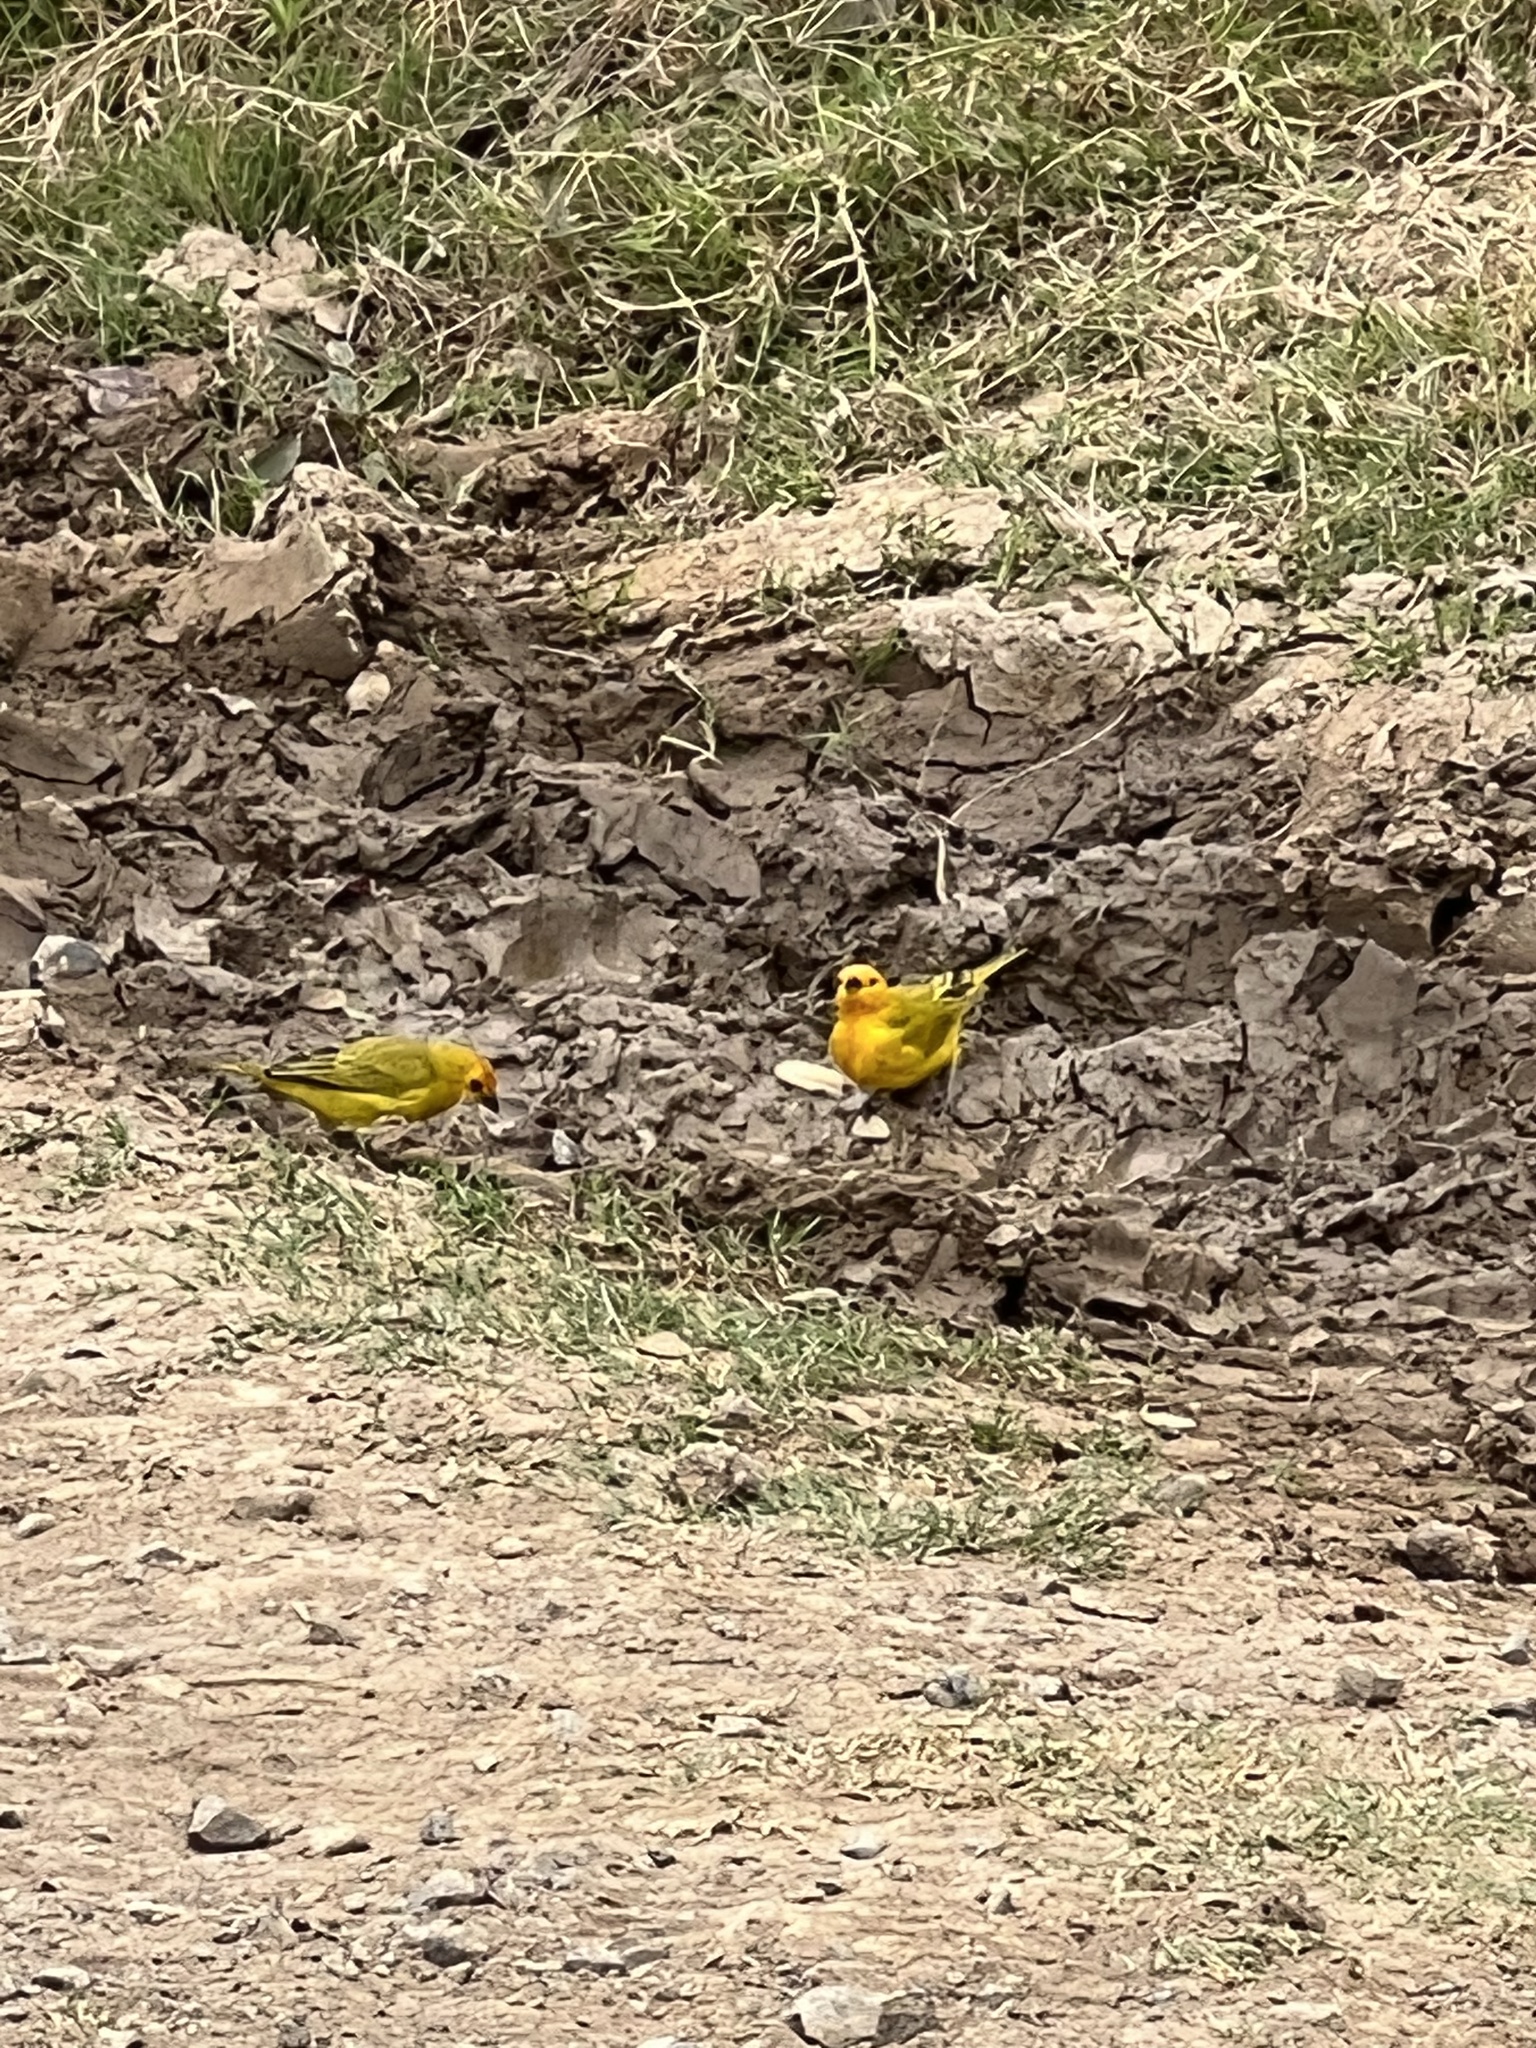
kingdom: Animalia
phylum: Chordata
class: Aves
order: Passeriformes
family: Thraupidae
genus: Sicalis
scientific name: Sicalis flaveola
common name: Saffron finch
